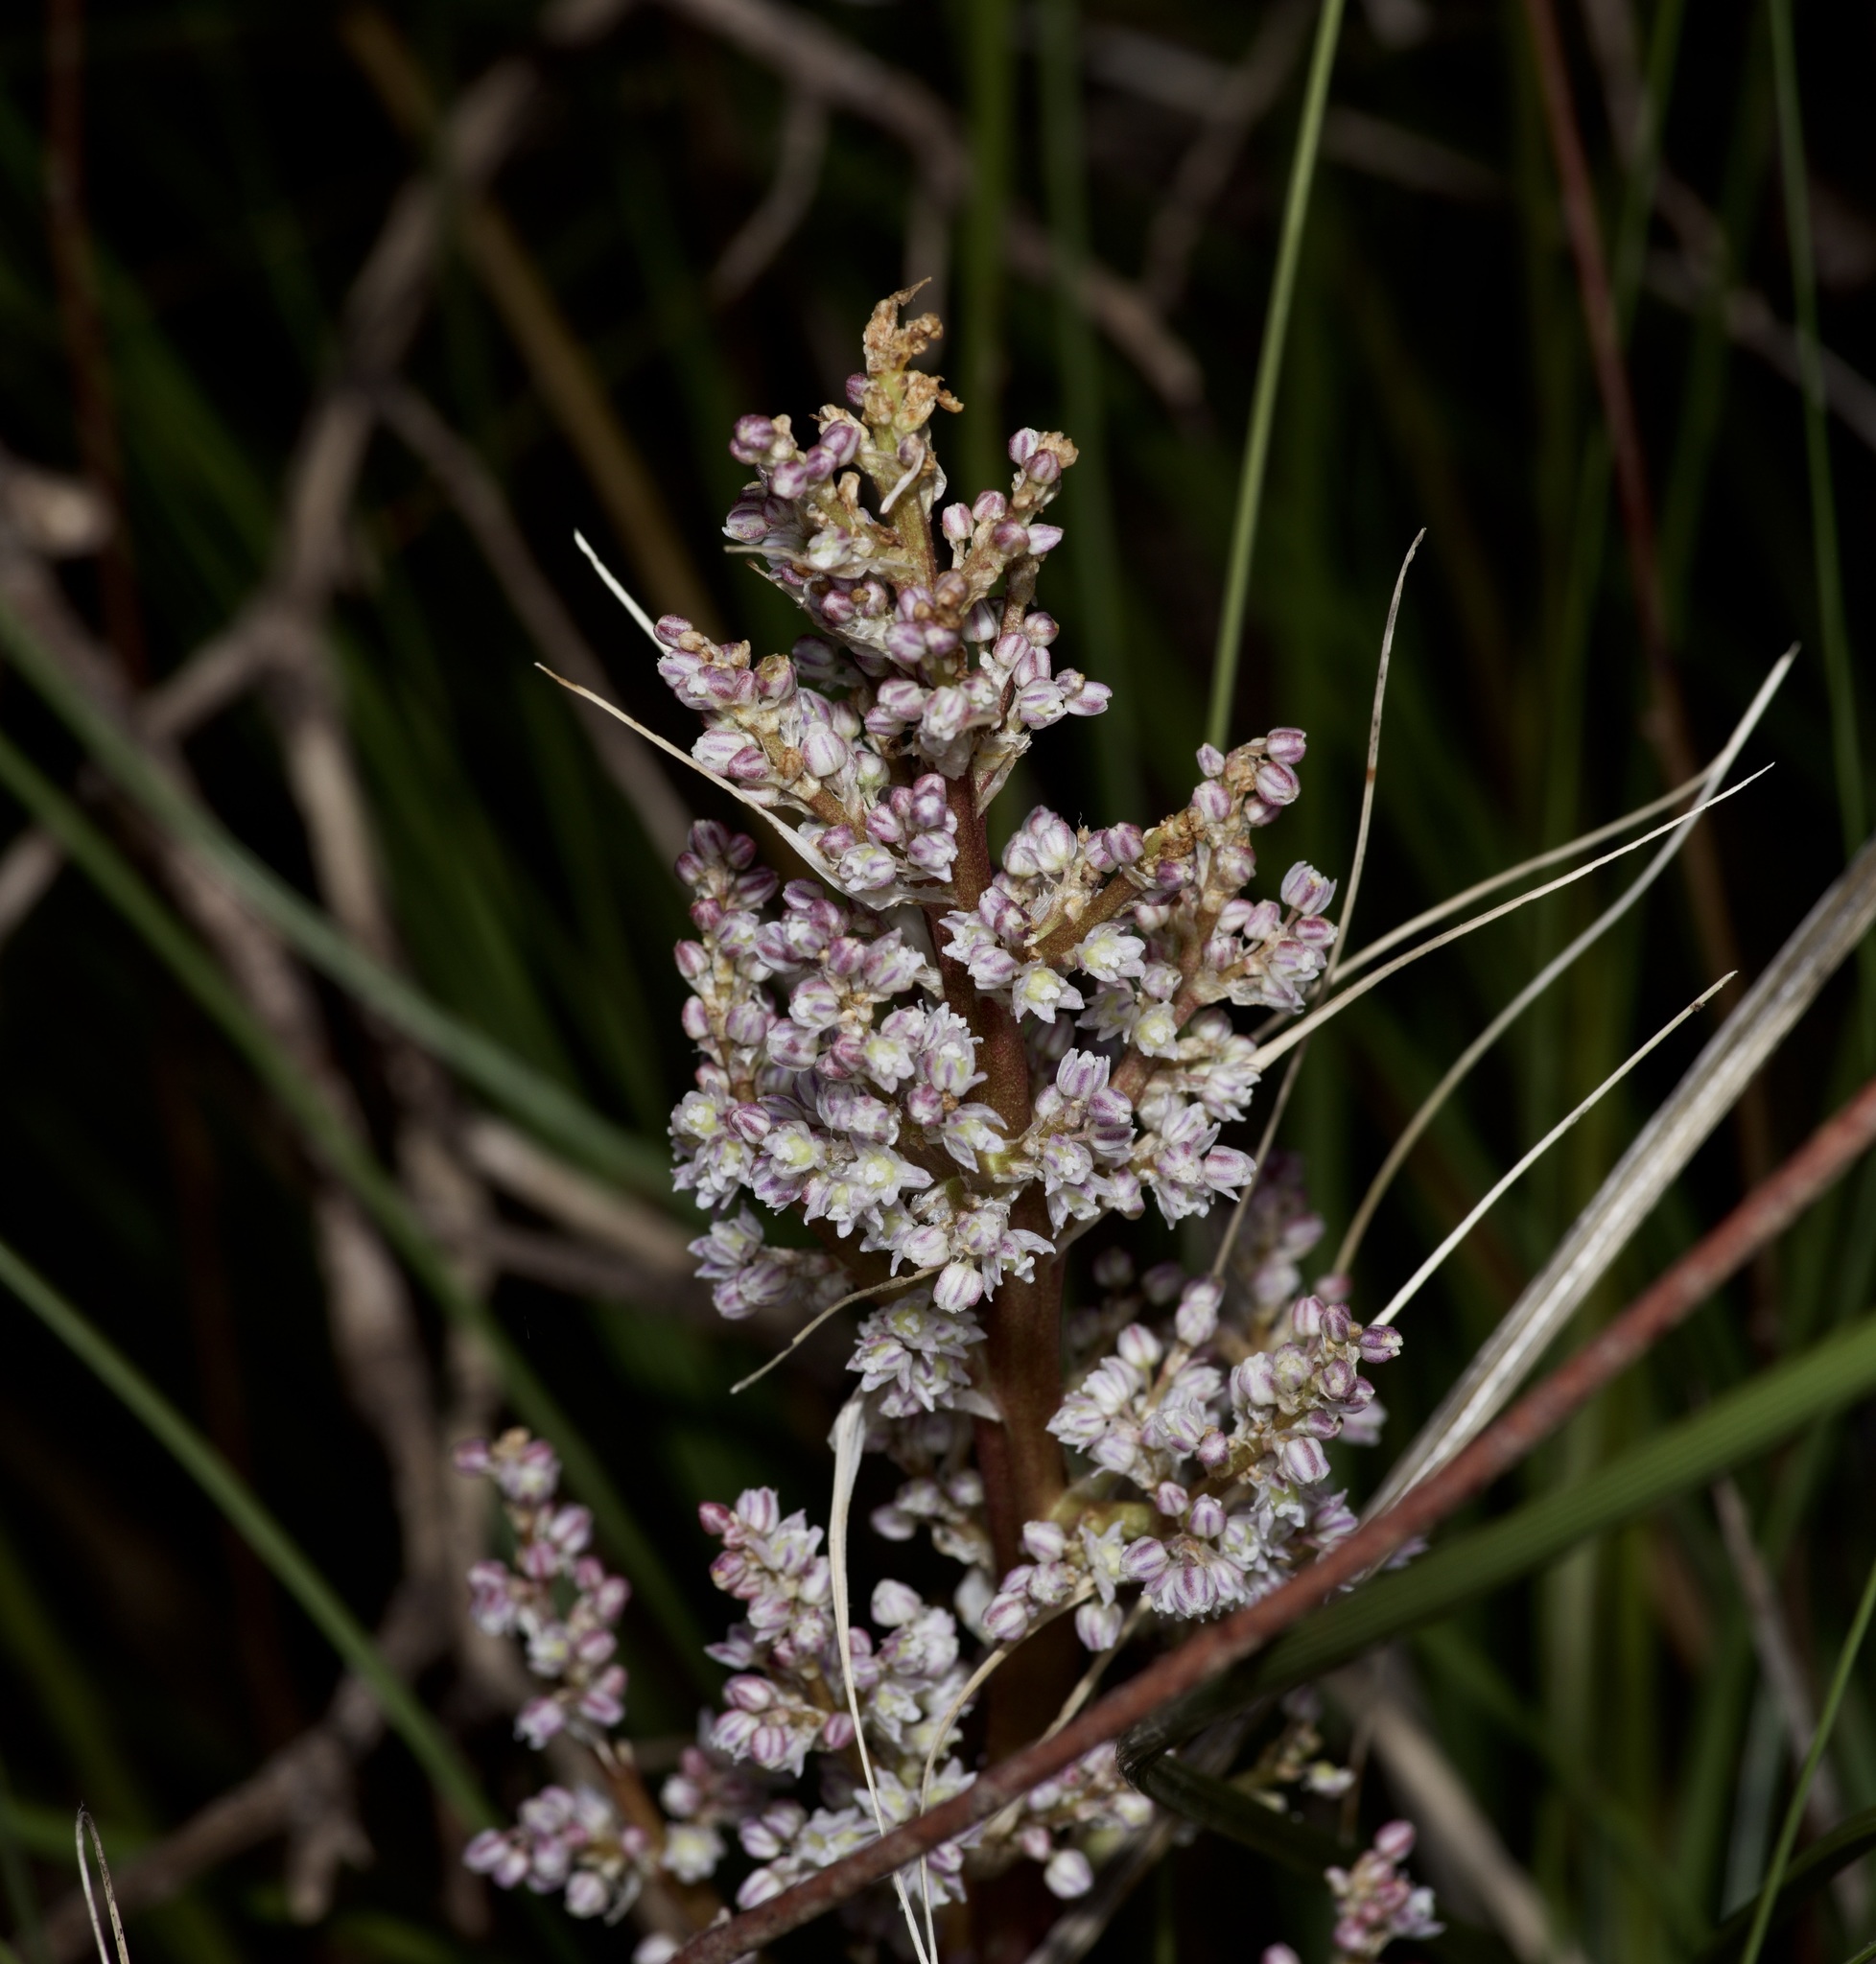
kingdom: Plantae
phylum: Tracheophyta
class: Liliopsida
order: Asparagales
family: Asparagaceae
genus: Nolina
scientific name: Nolina texana
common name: Texas sacahuiste
